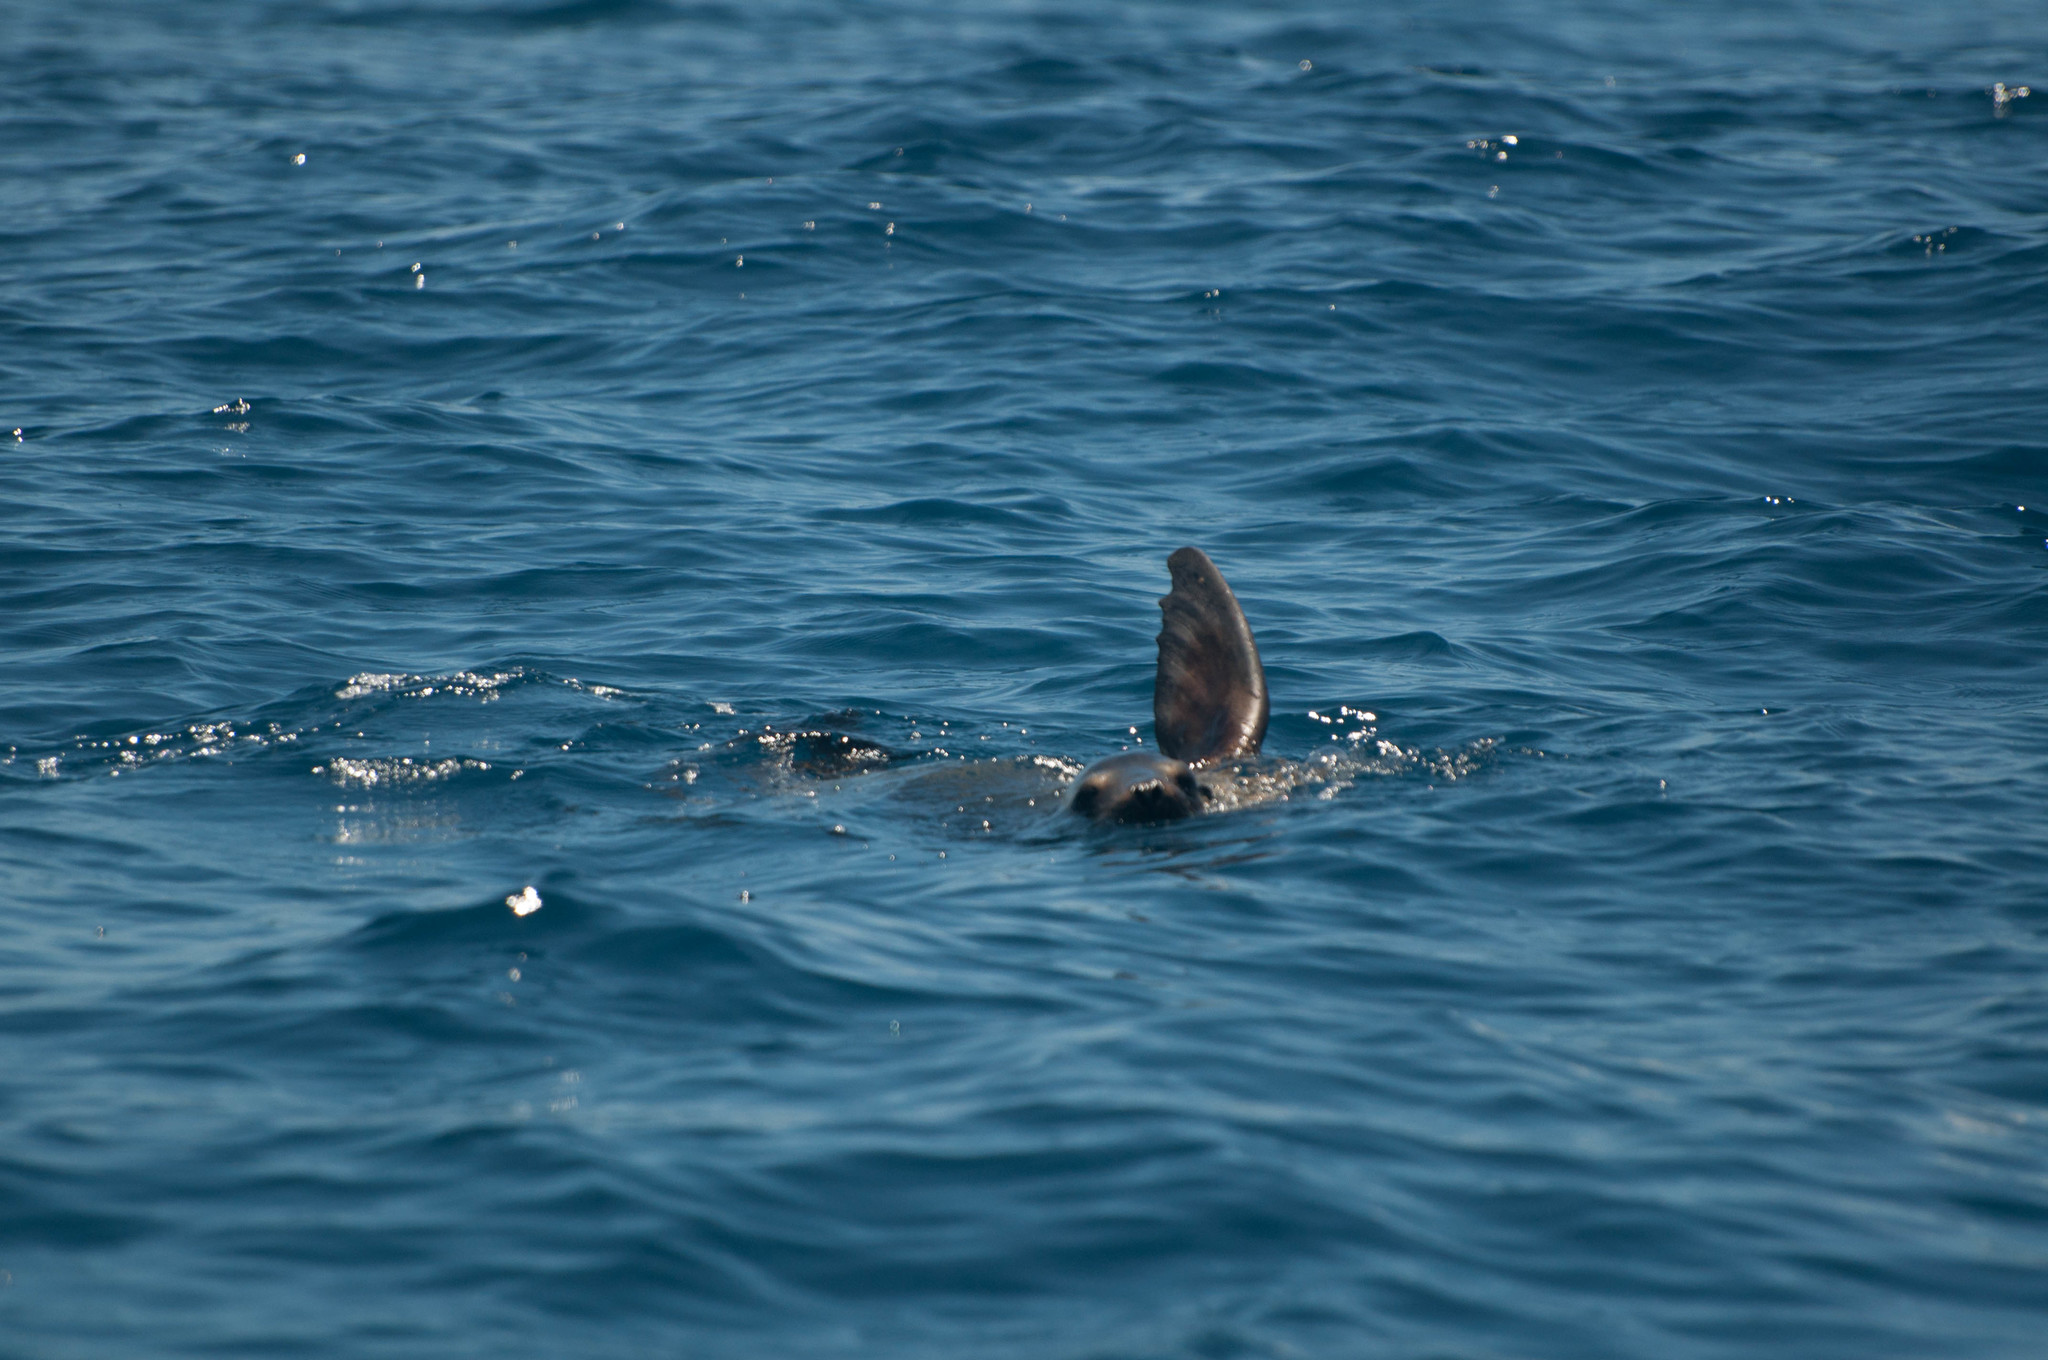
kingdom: Animalia
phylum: Chordata
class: Mammalia
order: Carnivora
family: Otariidae
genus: Zalophus
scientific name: Zalophus wollebaeki
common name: Galapagos sea lion
